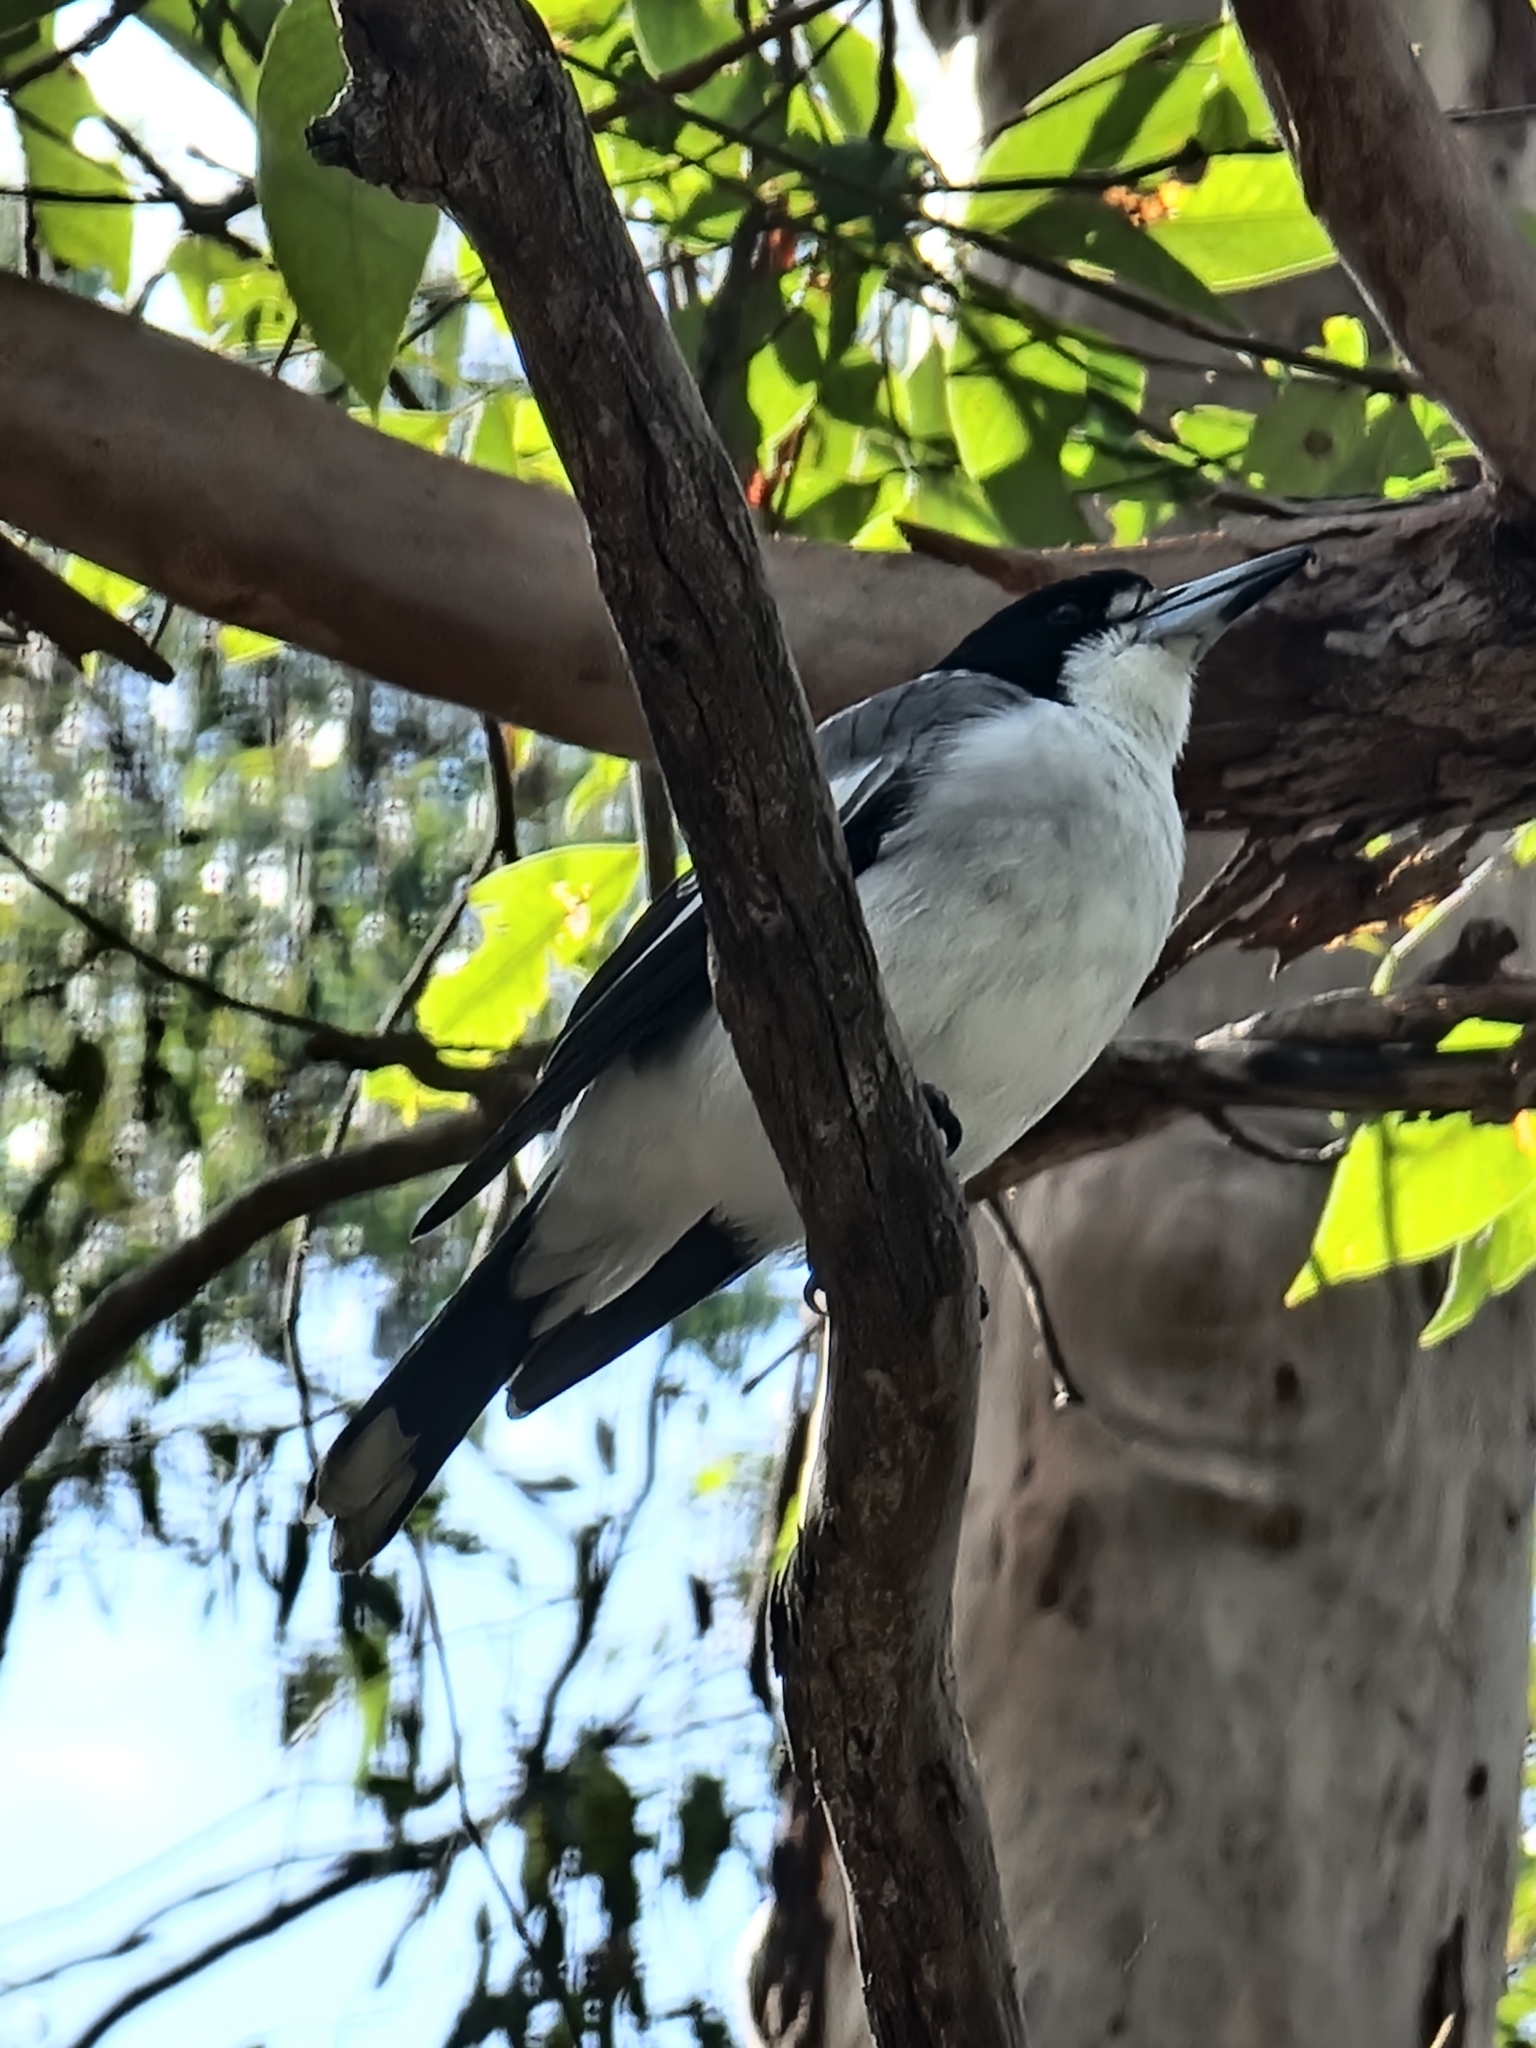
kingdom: Animalia
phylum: Chordata
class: Aves
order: Passeriformes
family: Cracticidae
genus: Cracticus
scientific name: Cracticus torquatus
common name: Grey butcherbird
